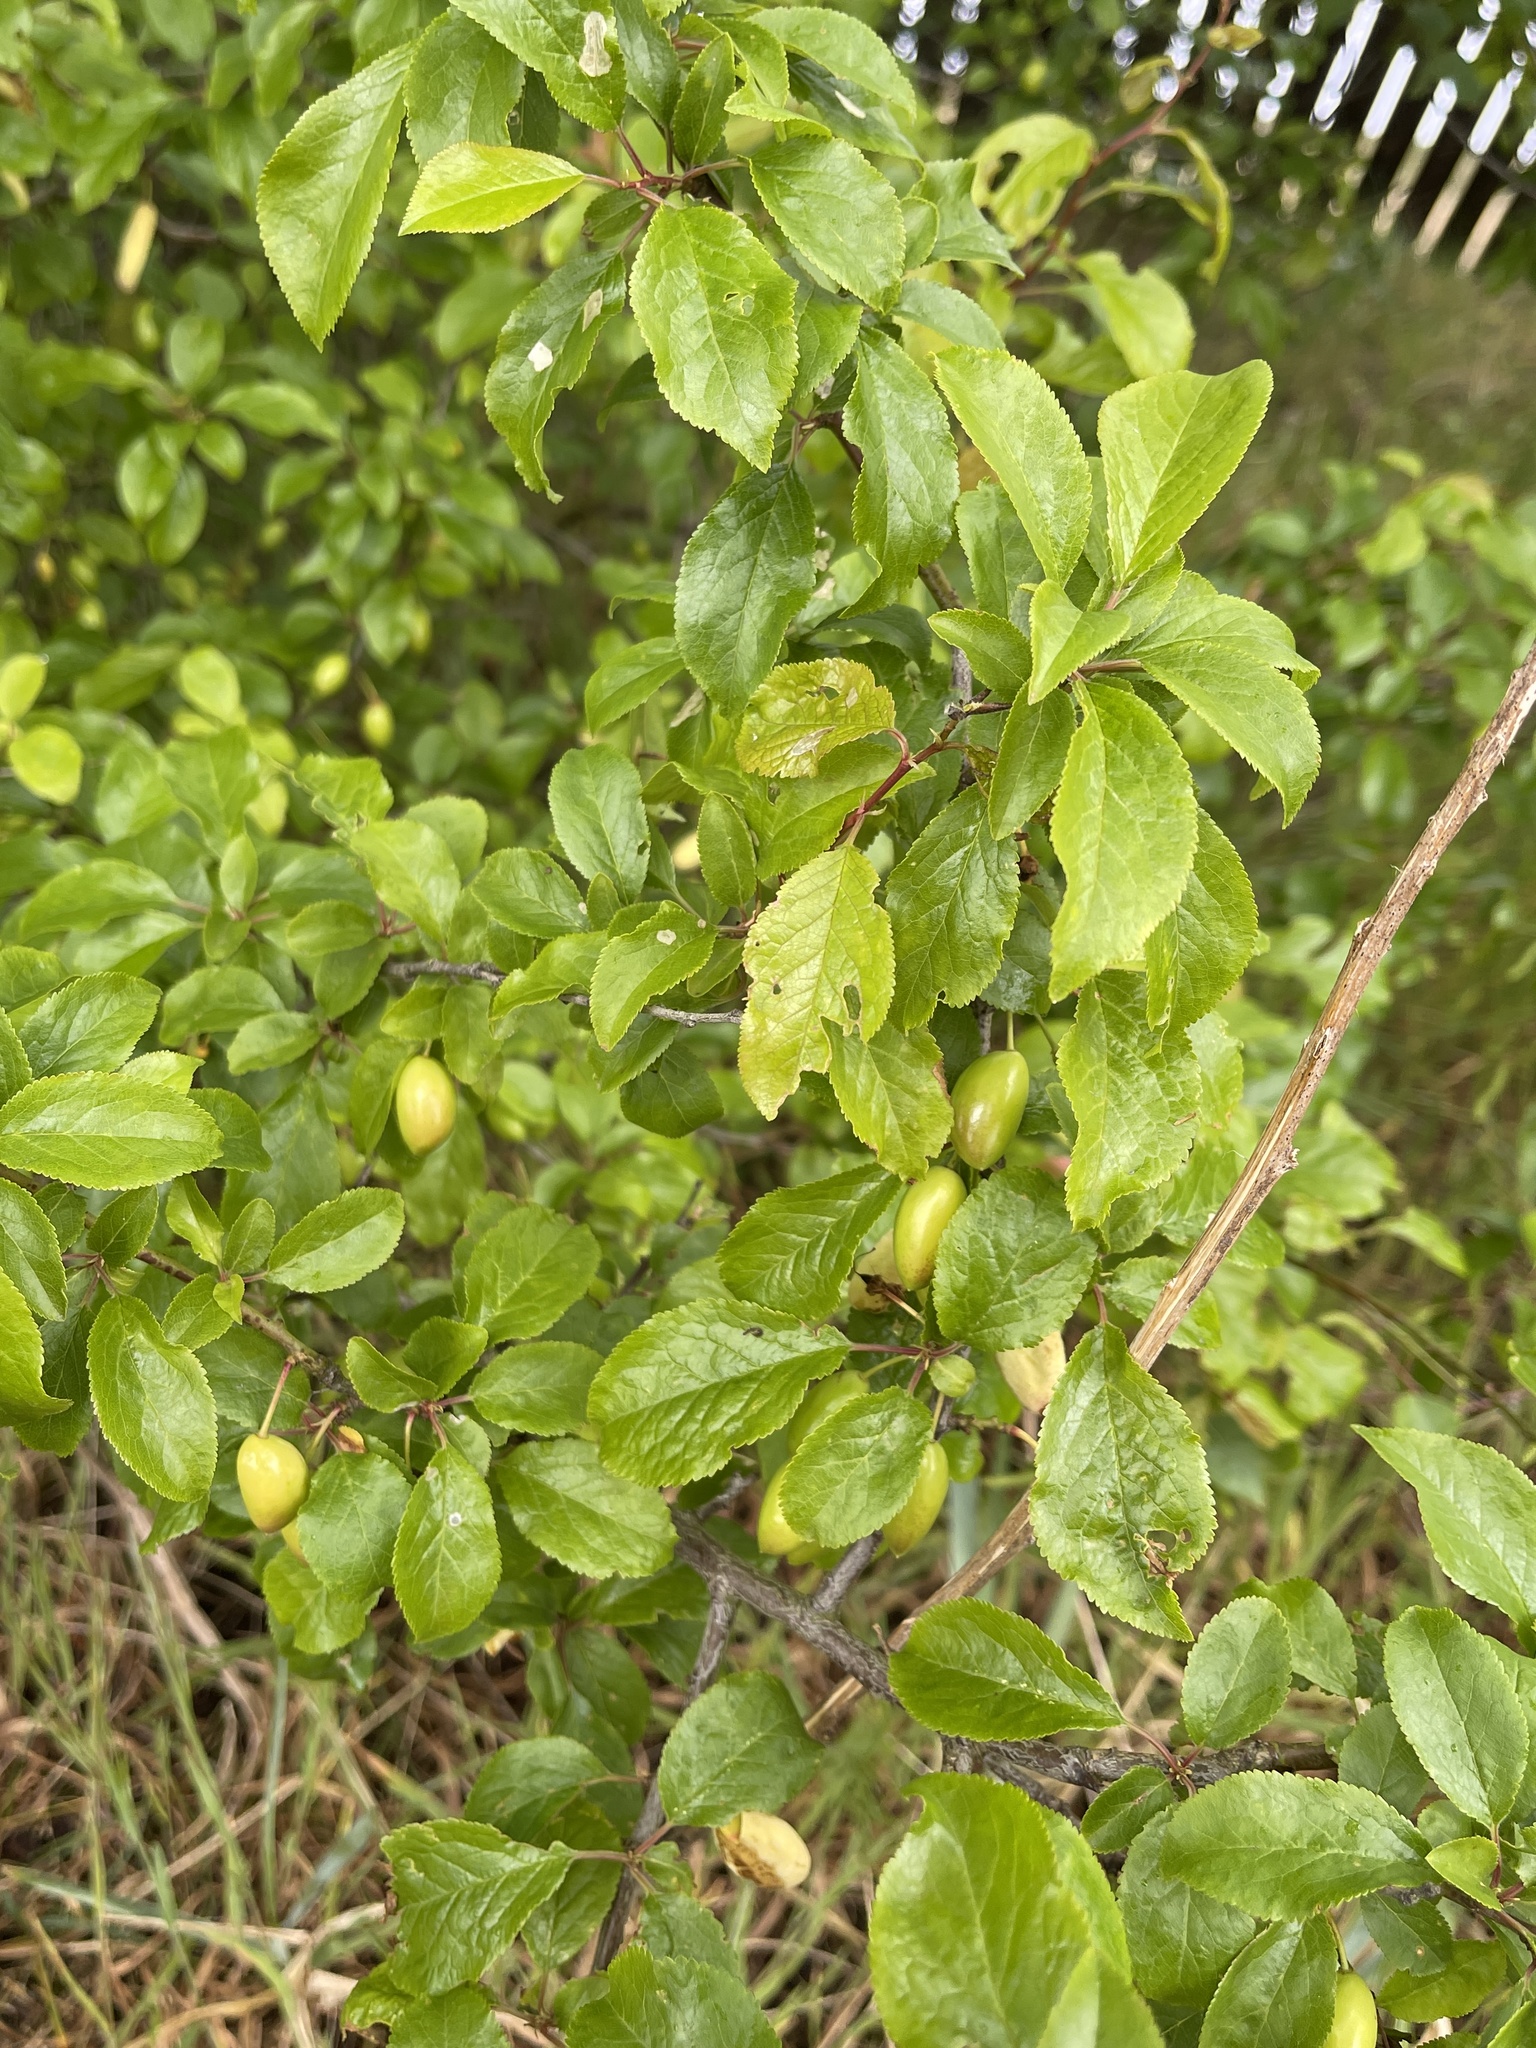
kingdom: Plantae
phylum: Tracheophyta
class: Magnoliopsida
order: Rosales
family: Rosaceae
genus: Prunus
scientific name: Prunus spinosa
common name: Blackthorn
